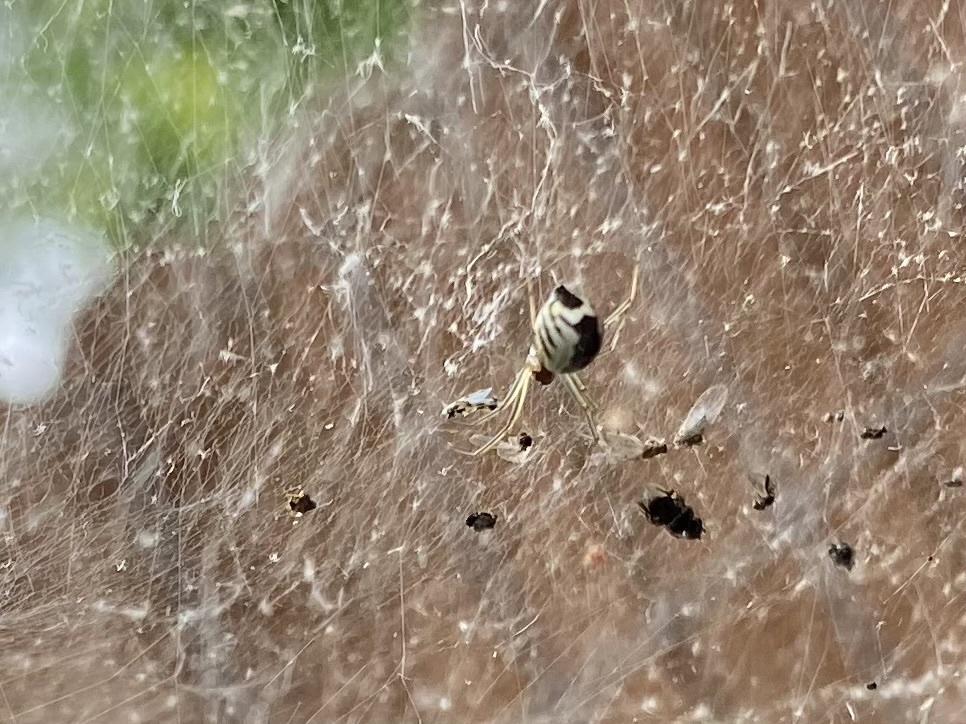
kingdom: Animalia
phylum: Arthropoda
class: Arachnida
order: Araneae
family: Linyphiidae
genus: Frontinella
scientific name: Frontinella pyramitela
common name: Bowl-and-doily spider
